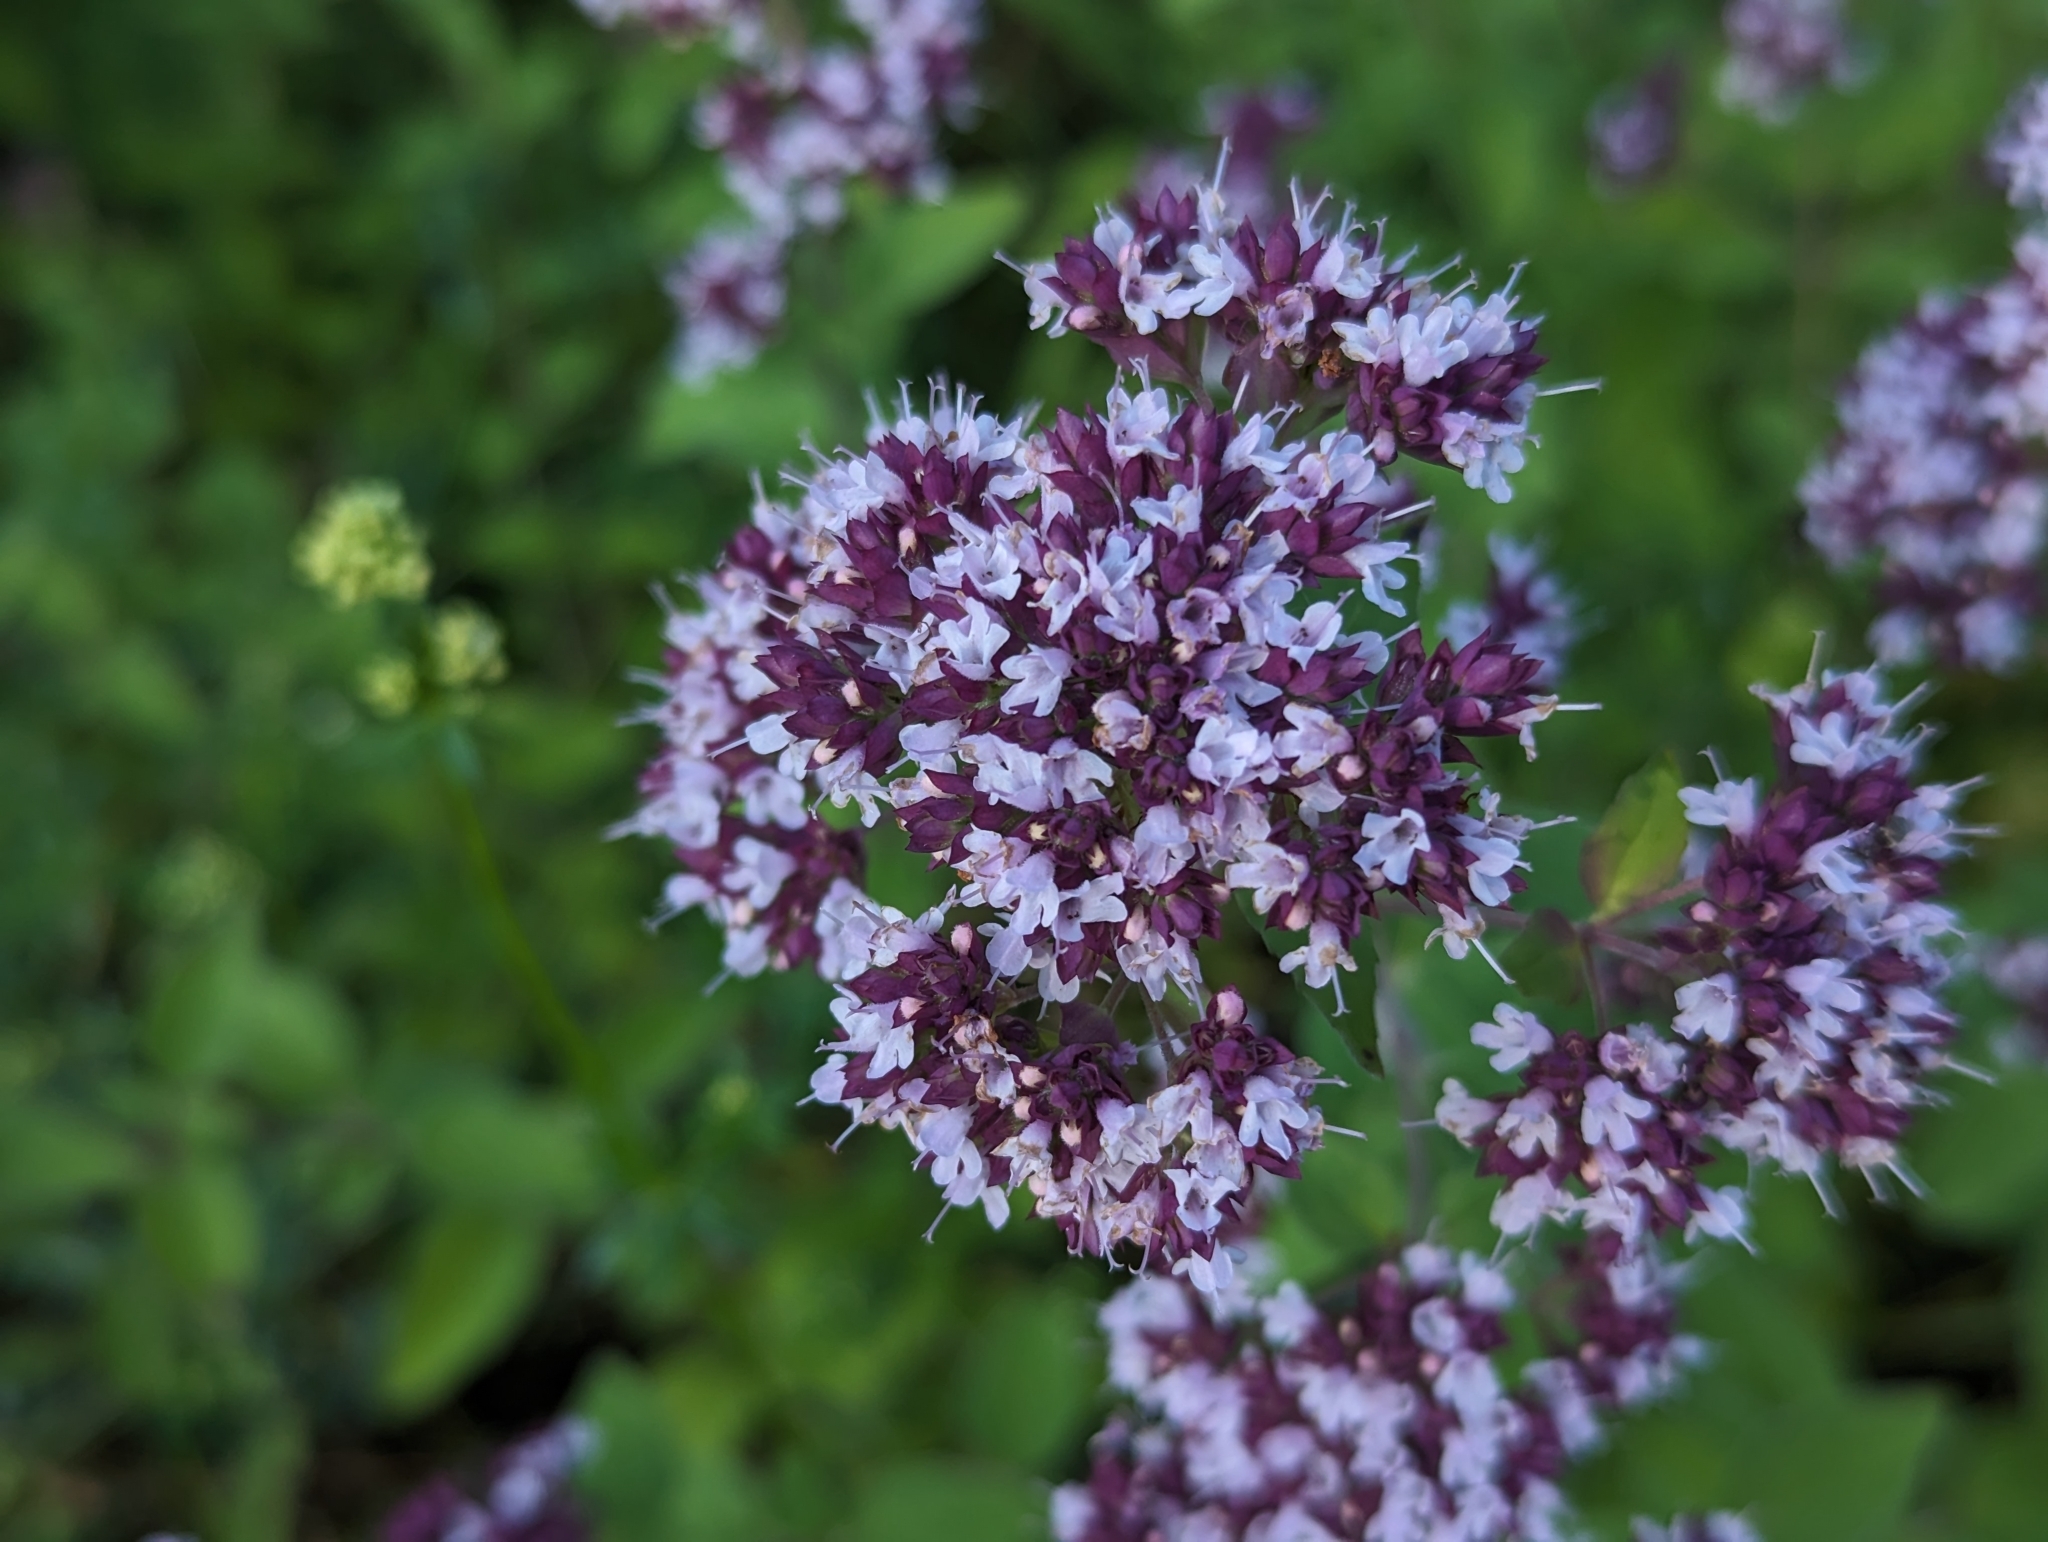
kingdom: Plantae
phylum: Tracheophyta
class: Magnoliopsida
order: Lamiales
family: Lamiaceae
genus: Origanum
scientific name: Origanum vulgare
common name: Wild marjoram
